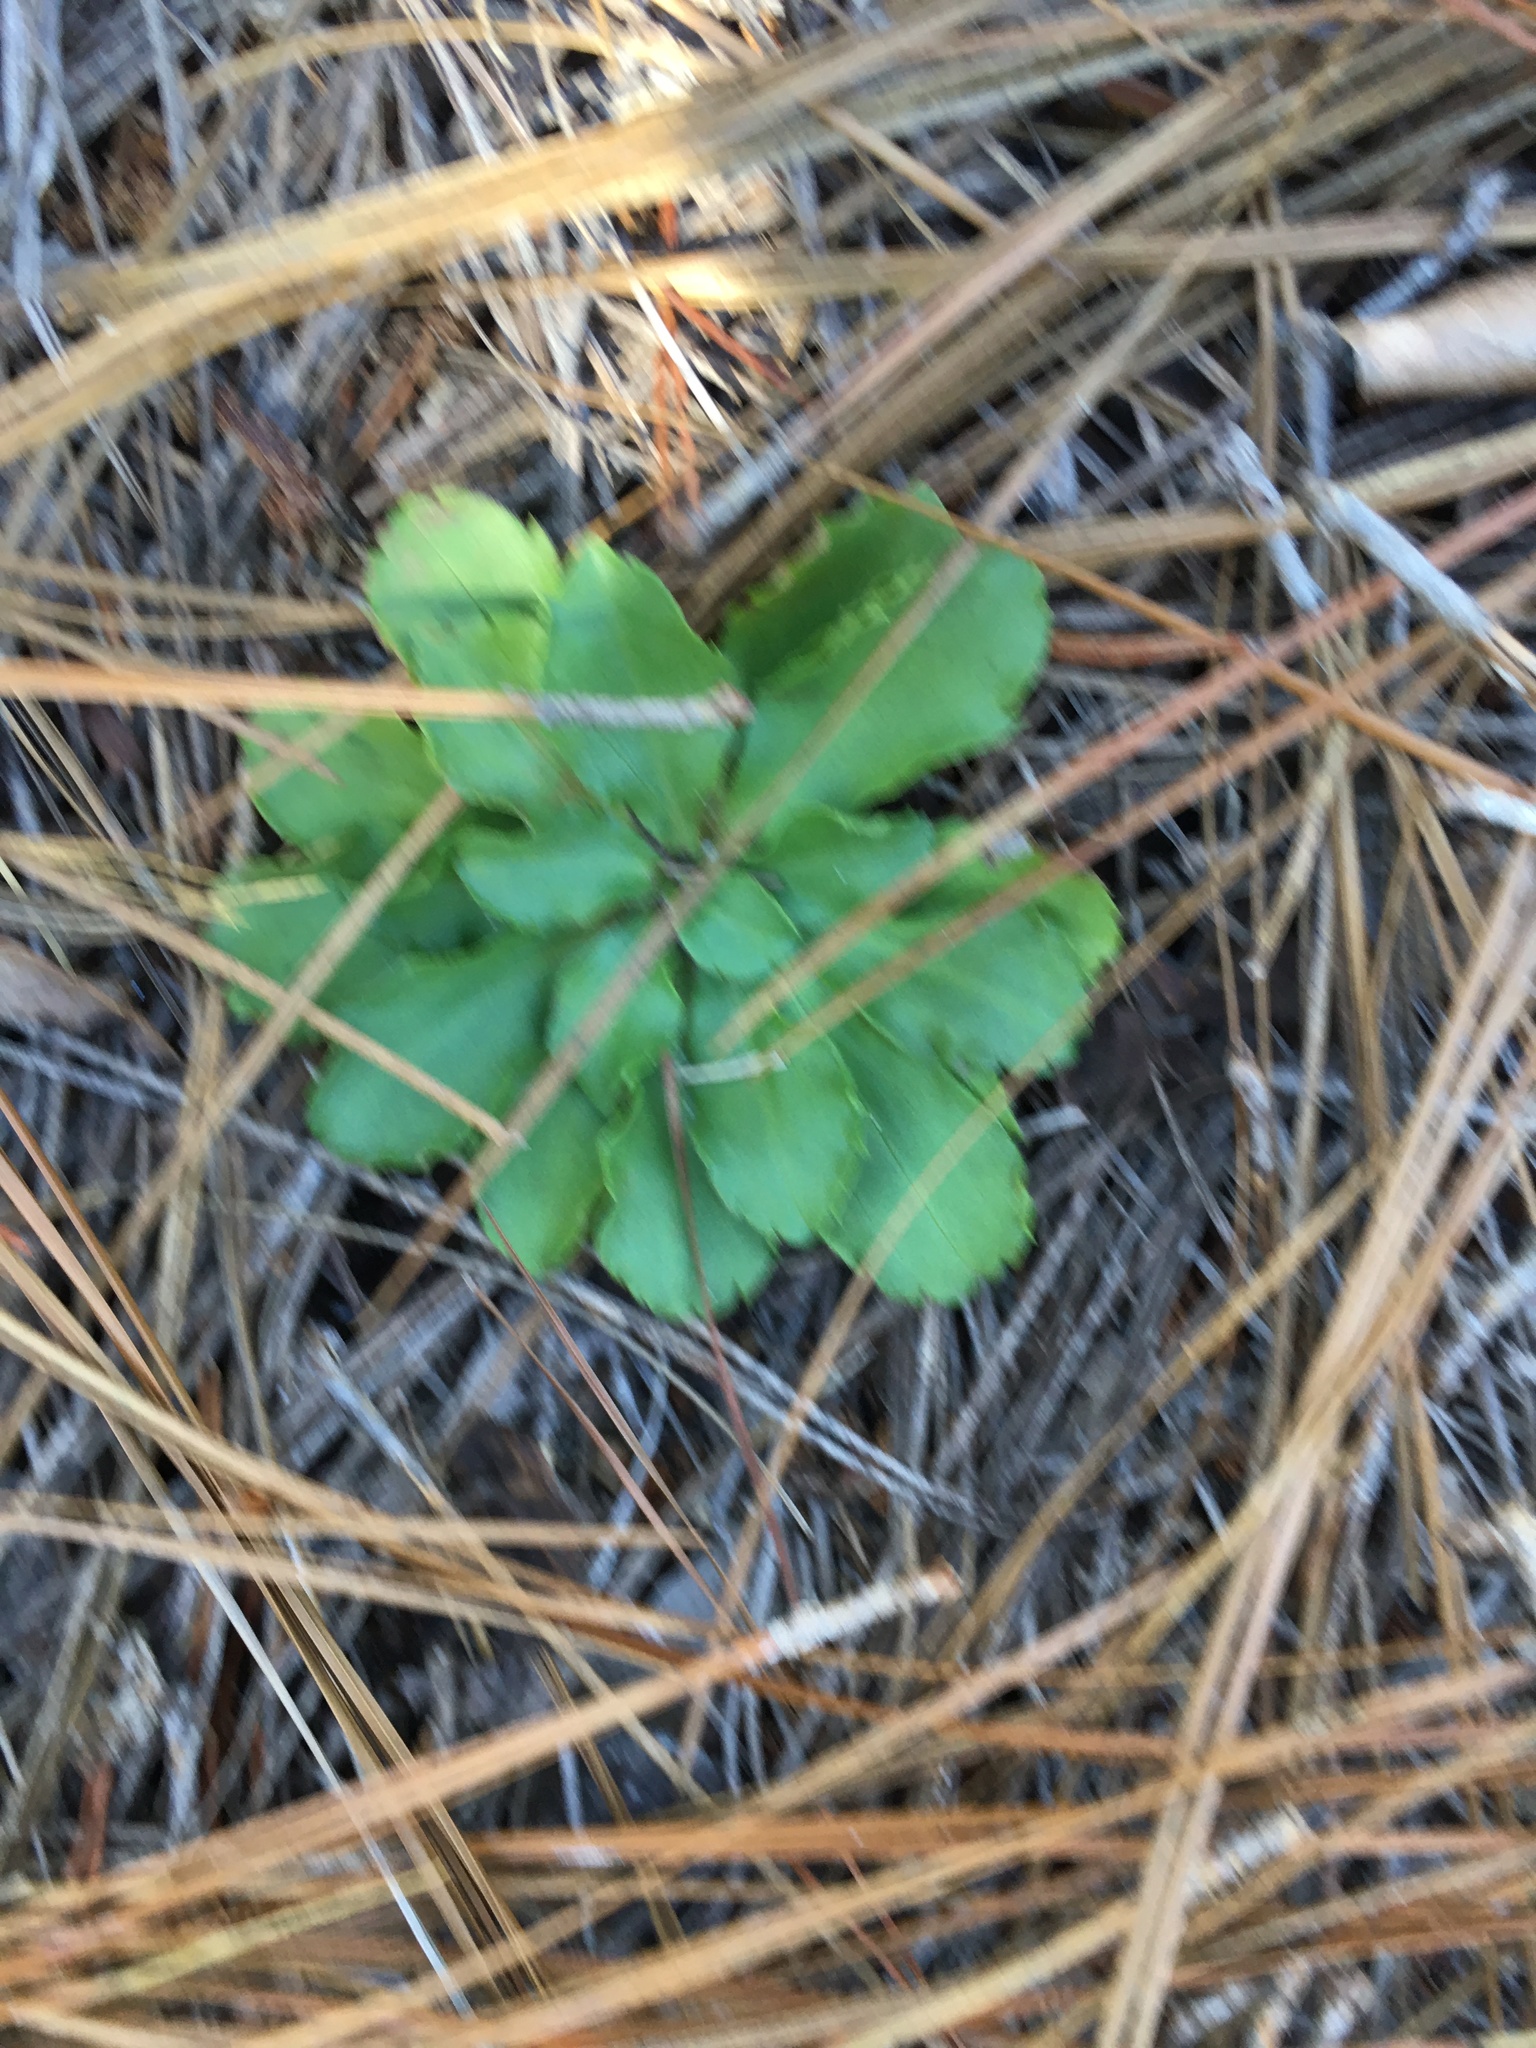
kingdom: Plantae
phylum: Tracheophyta
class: Magnoliopsida
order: Saxifragales
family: Saxifragaceae
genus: Micranthes
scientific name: Micranthes virginiensis
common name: Early saxifrage
